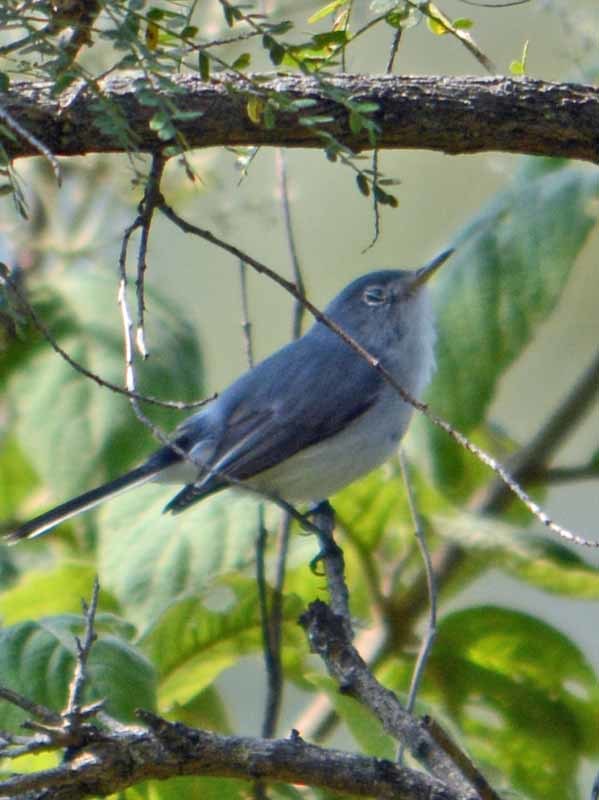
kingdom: Animalia
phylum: Chordata
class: Aves
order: Passeriformes
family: Polioptilidae
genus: Polioptila
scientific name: Polioptila caerulea
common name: Blue-gray gnatcatcher
